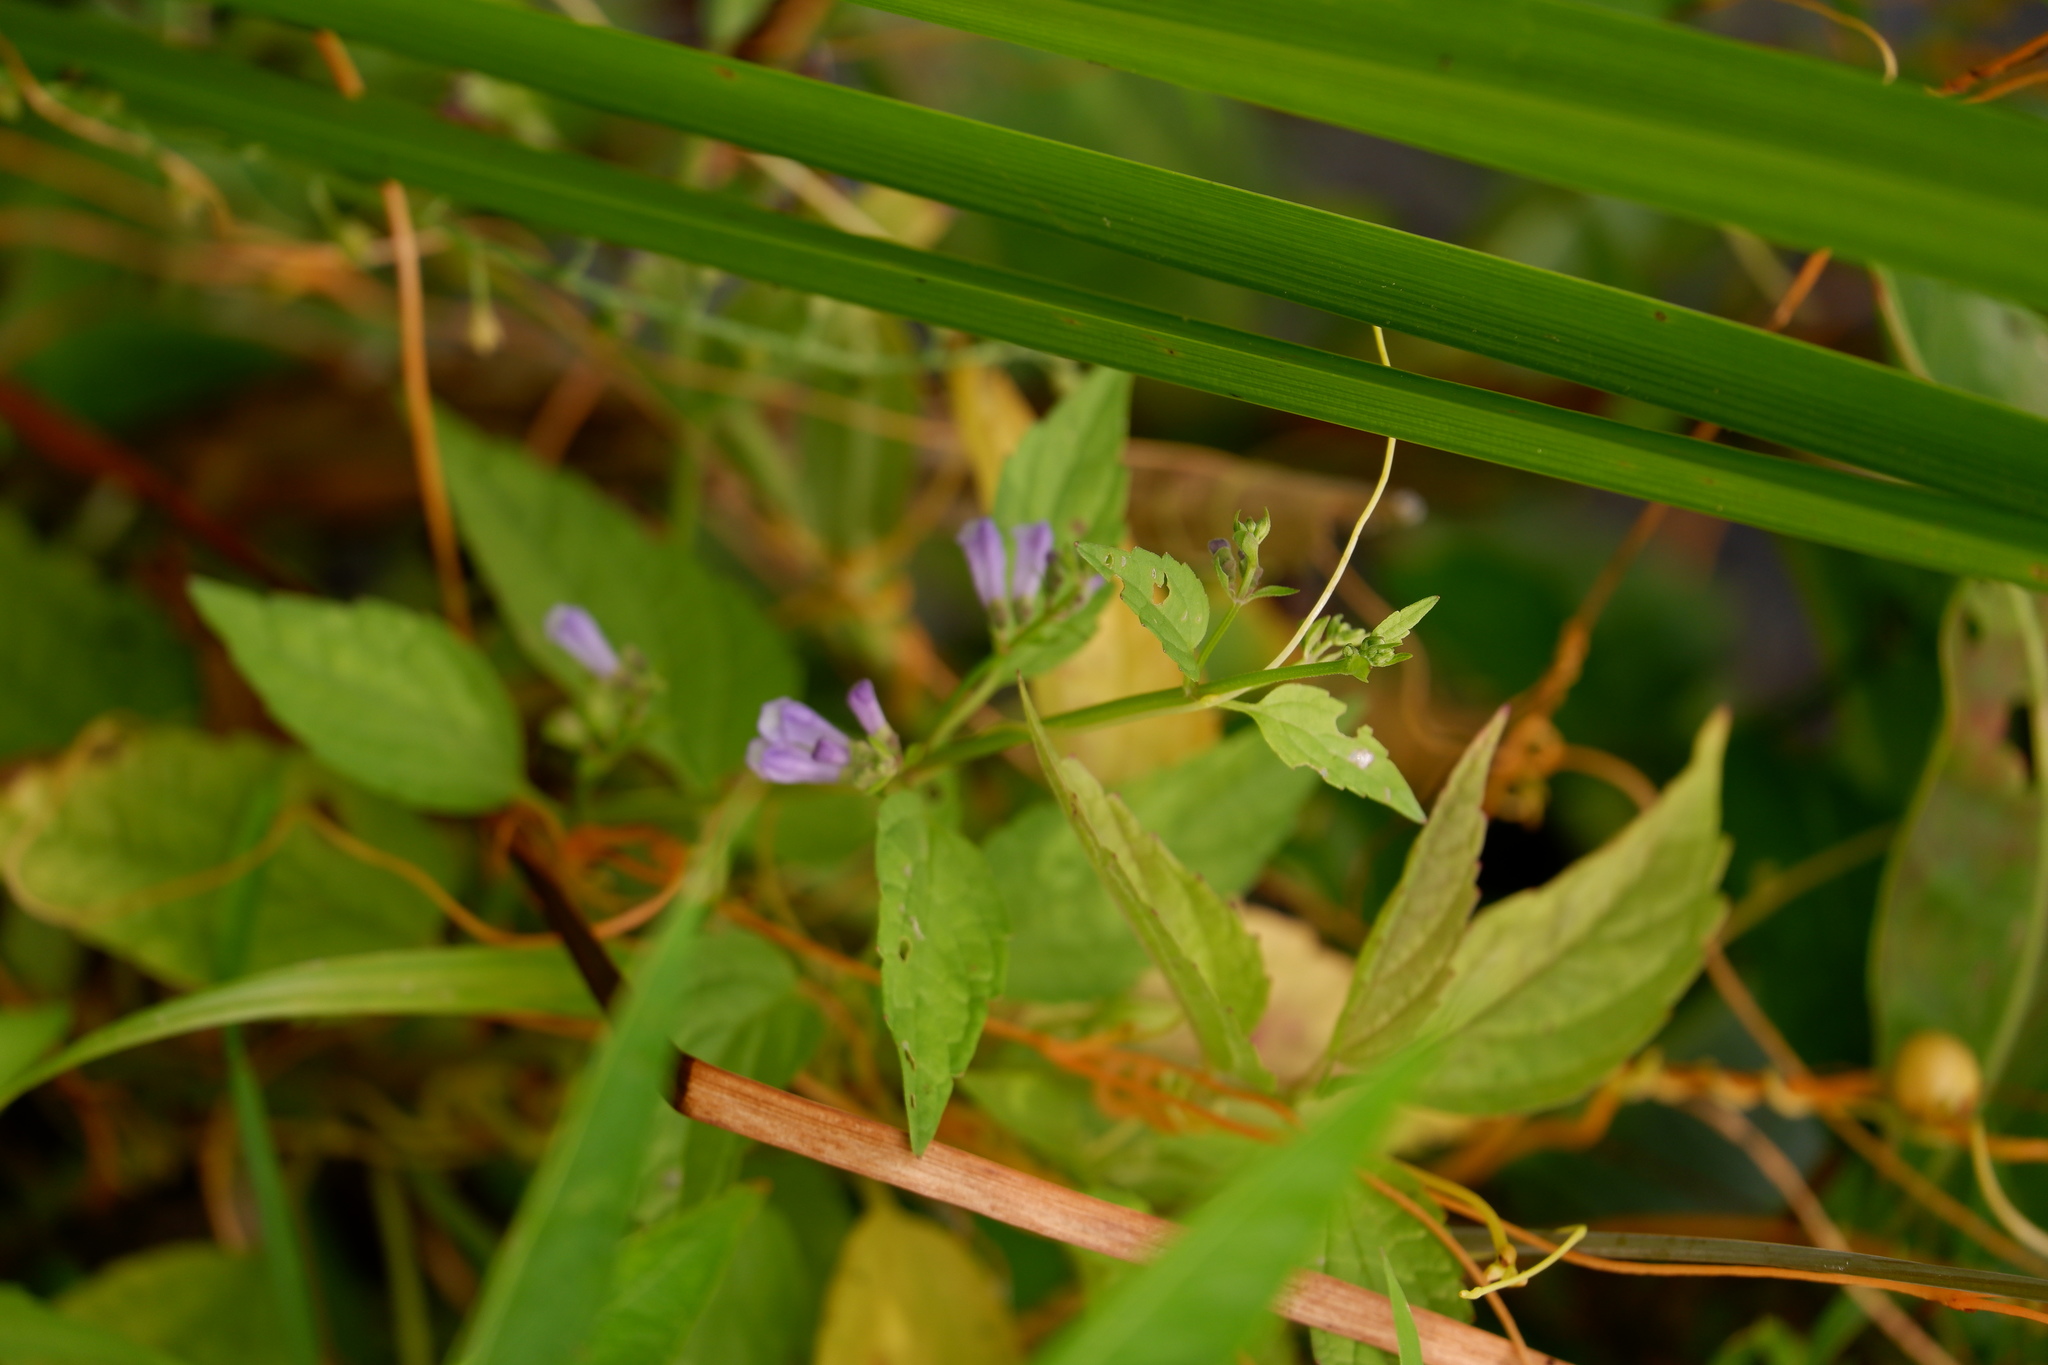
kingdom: Plantae
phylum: Tracheophyta
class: Magnoliopsida
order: Lamiales
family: Lamiaceae
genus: Scutellaria
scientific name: Scutellaria lateriflora
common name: Blue skullcap
